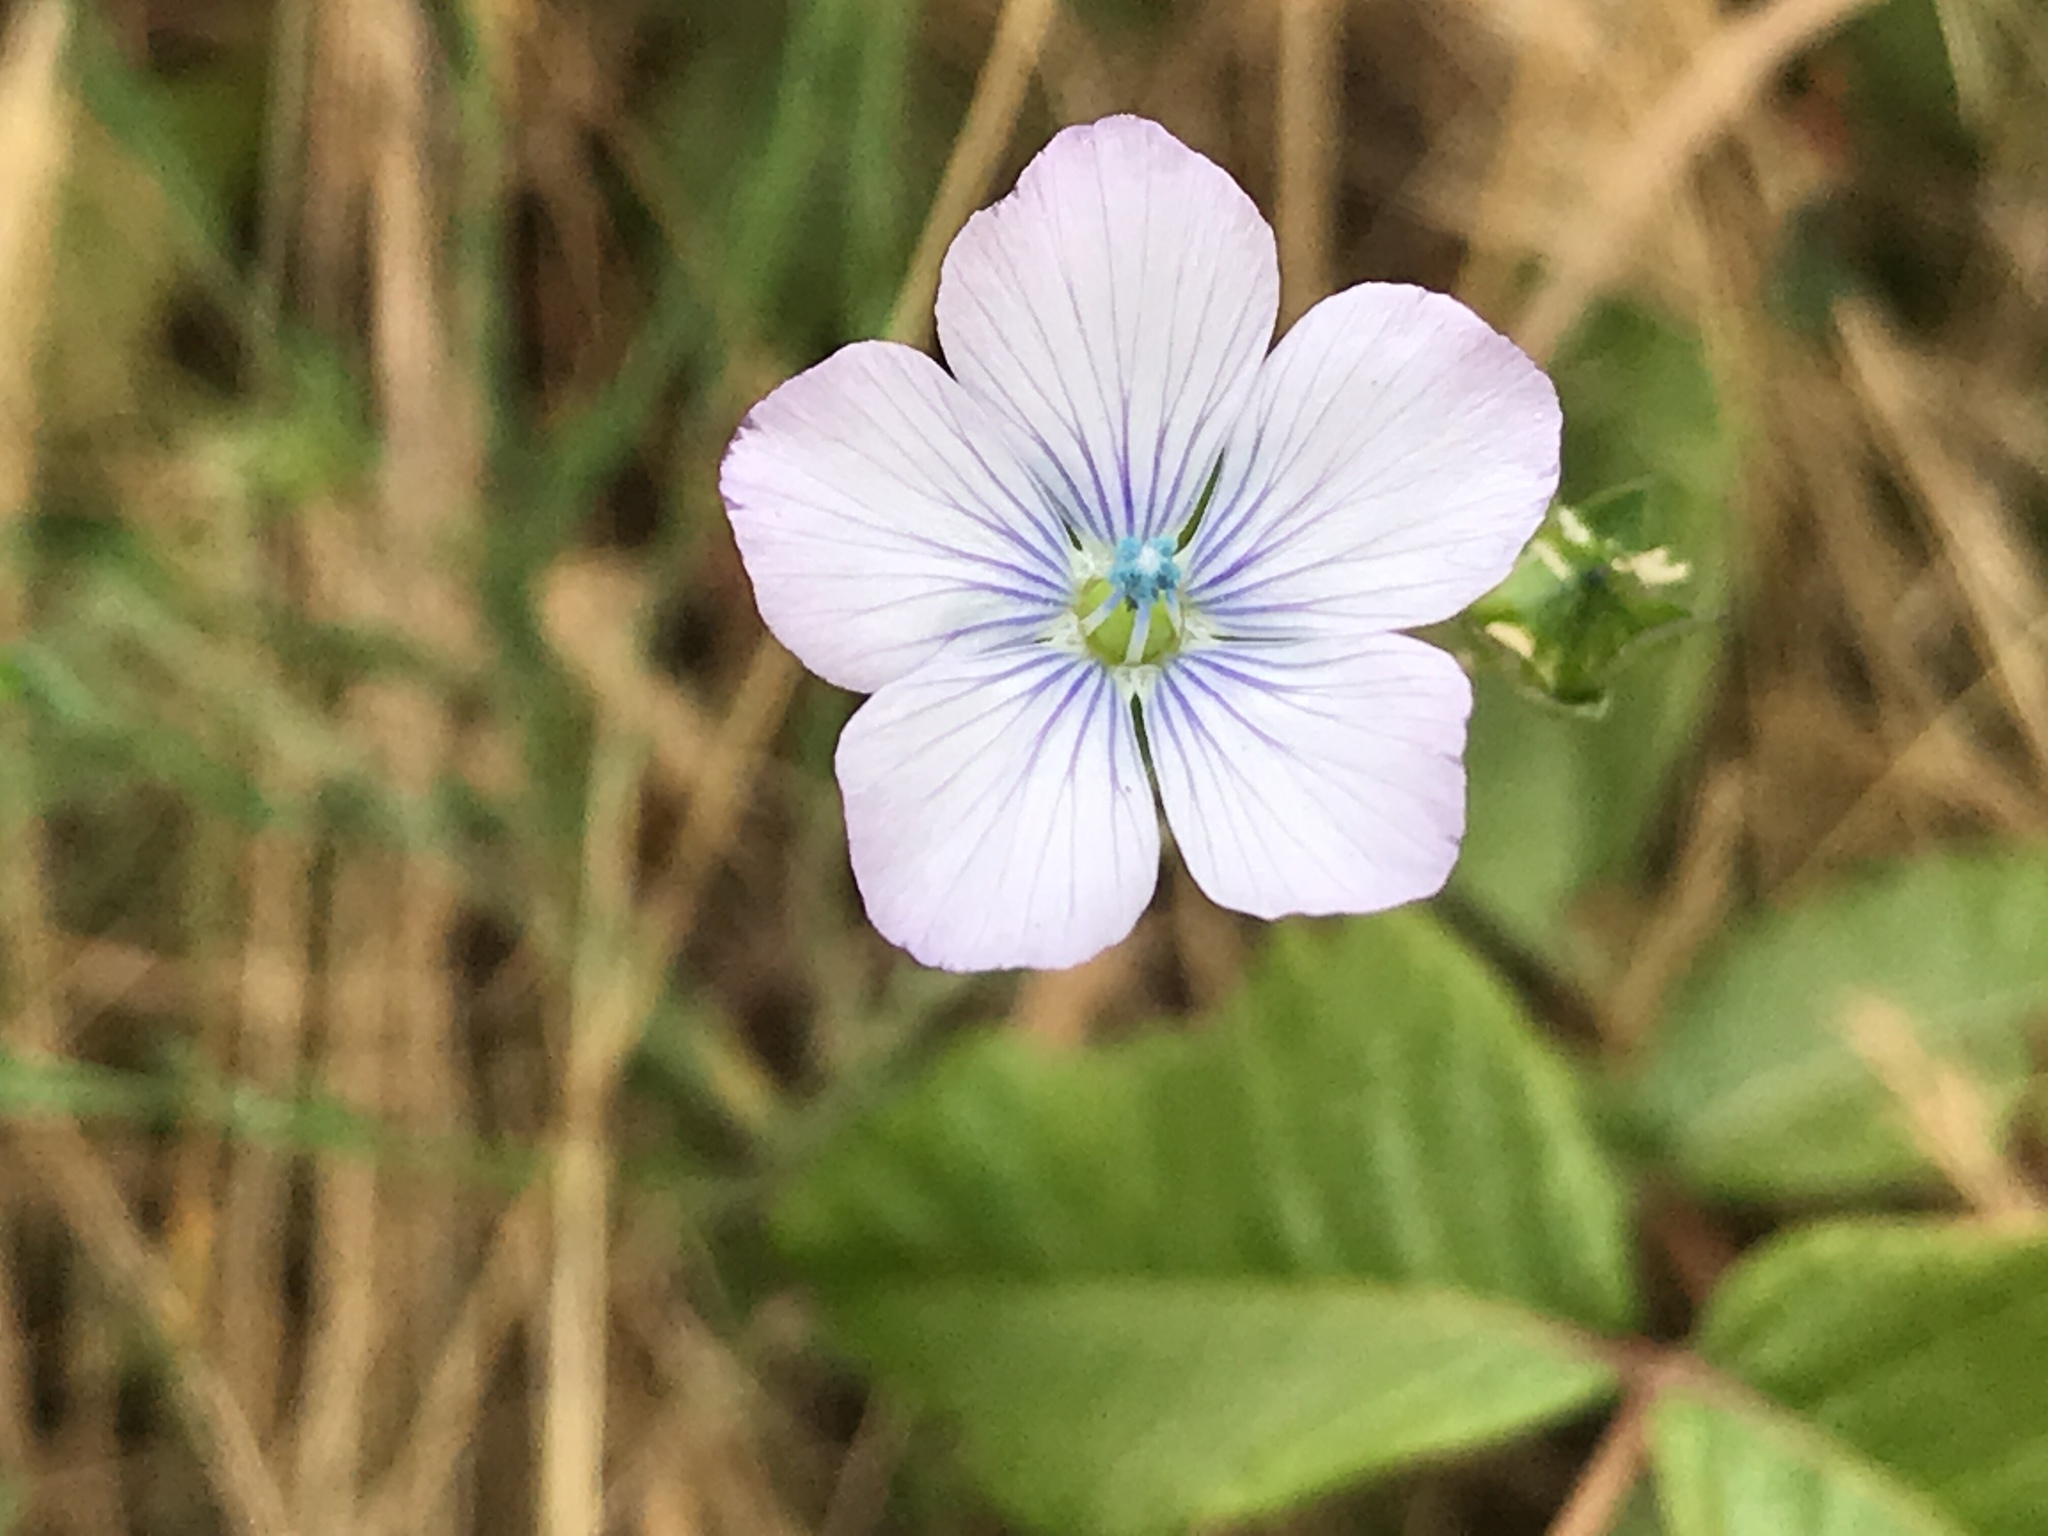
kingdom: Plantae
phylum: Tracheophyta
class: Magnoliopsida
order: Malpighiales
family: Linaceae
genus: Linum
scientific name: Linum bienne
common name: Pale flax
